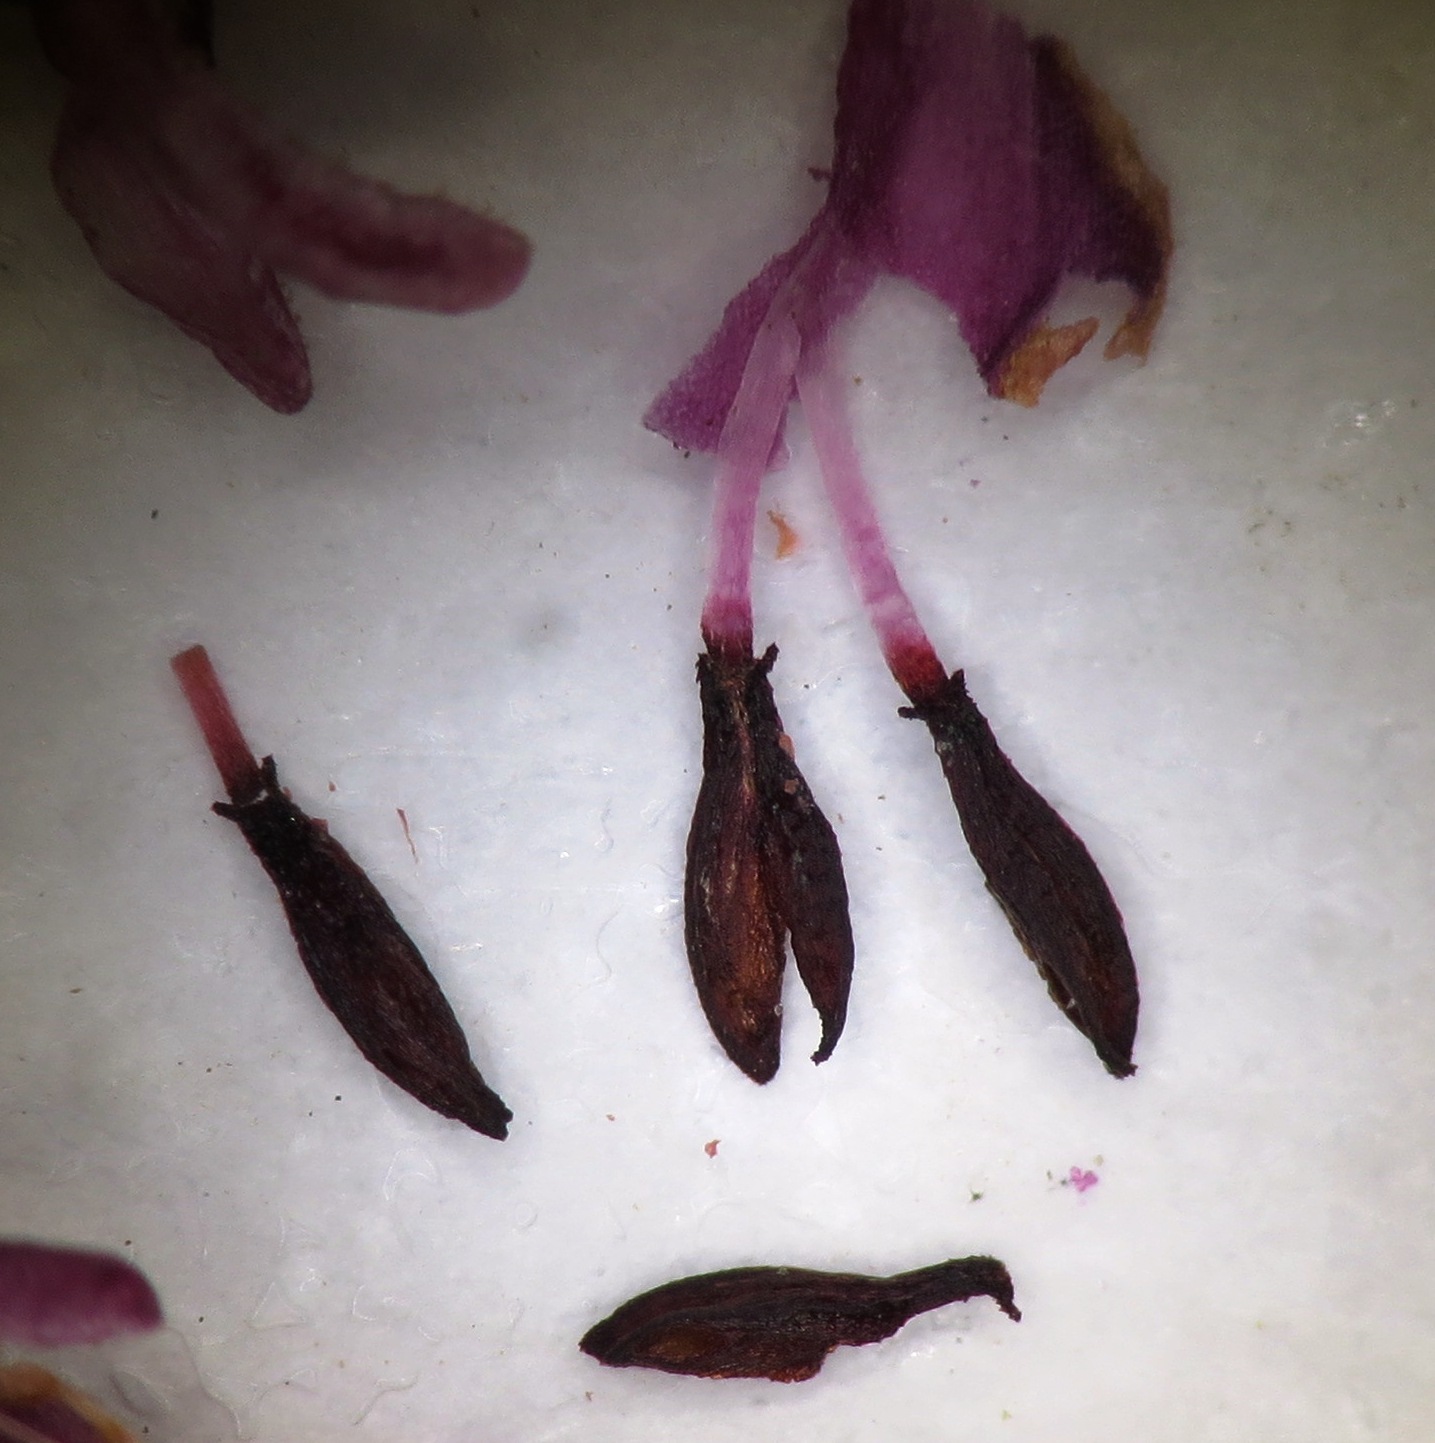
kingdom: Plantae
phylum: Tracheophyta
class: Magnoliopsida
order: Ericales
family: Ericaceae
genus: Erica
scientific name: Erica scytophylla
